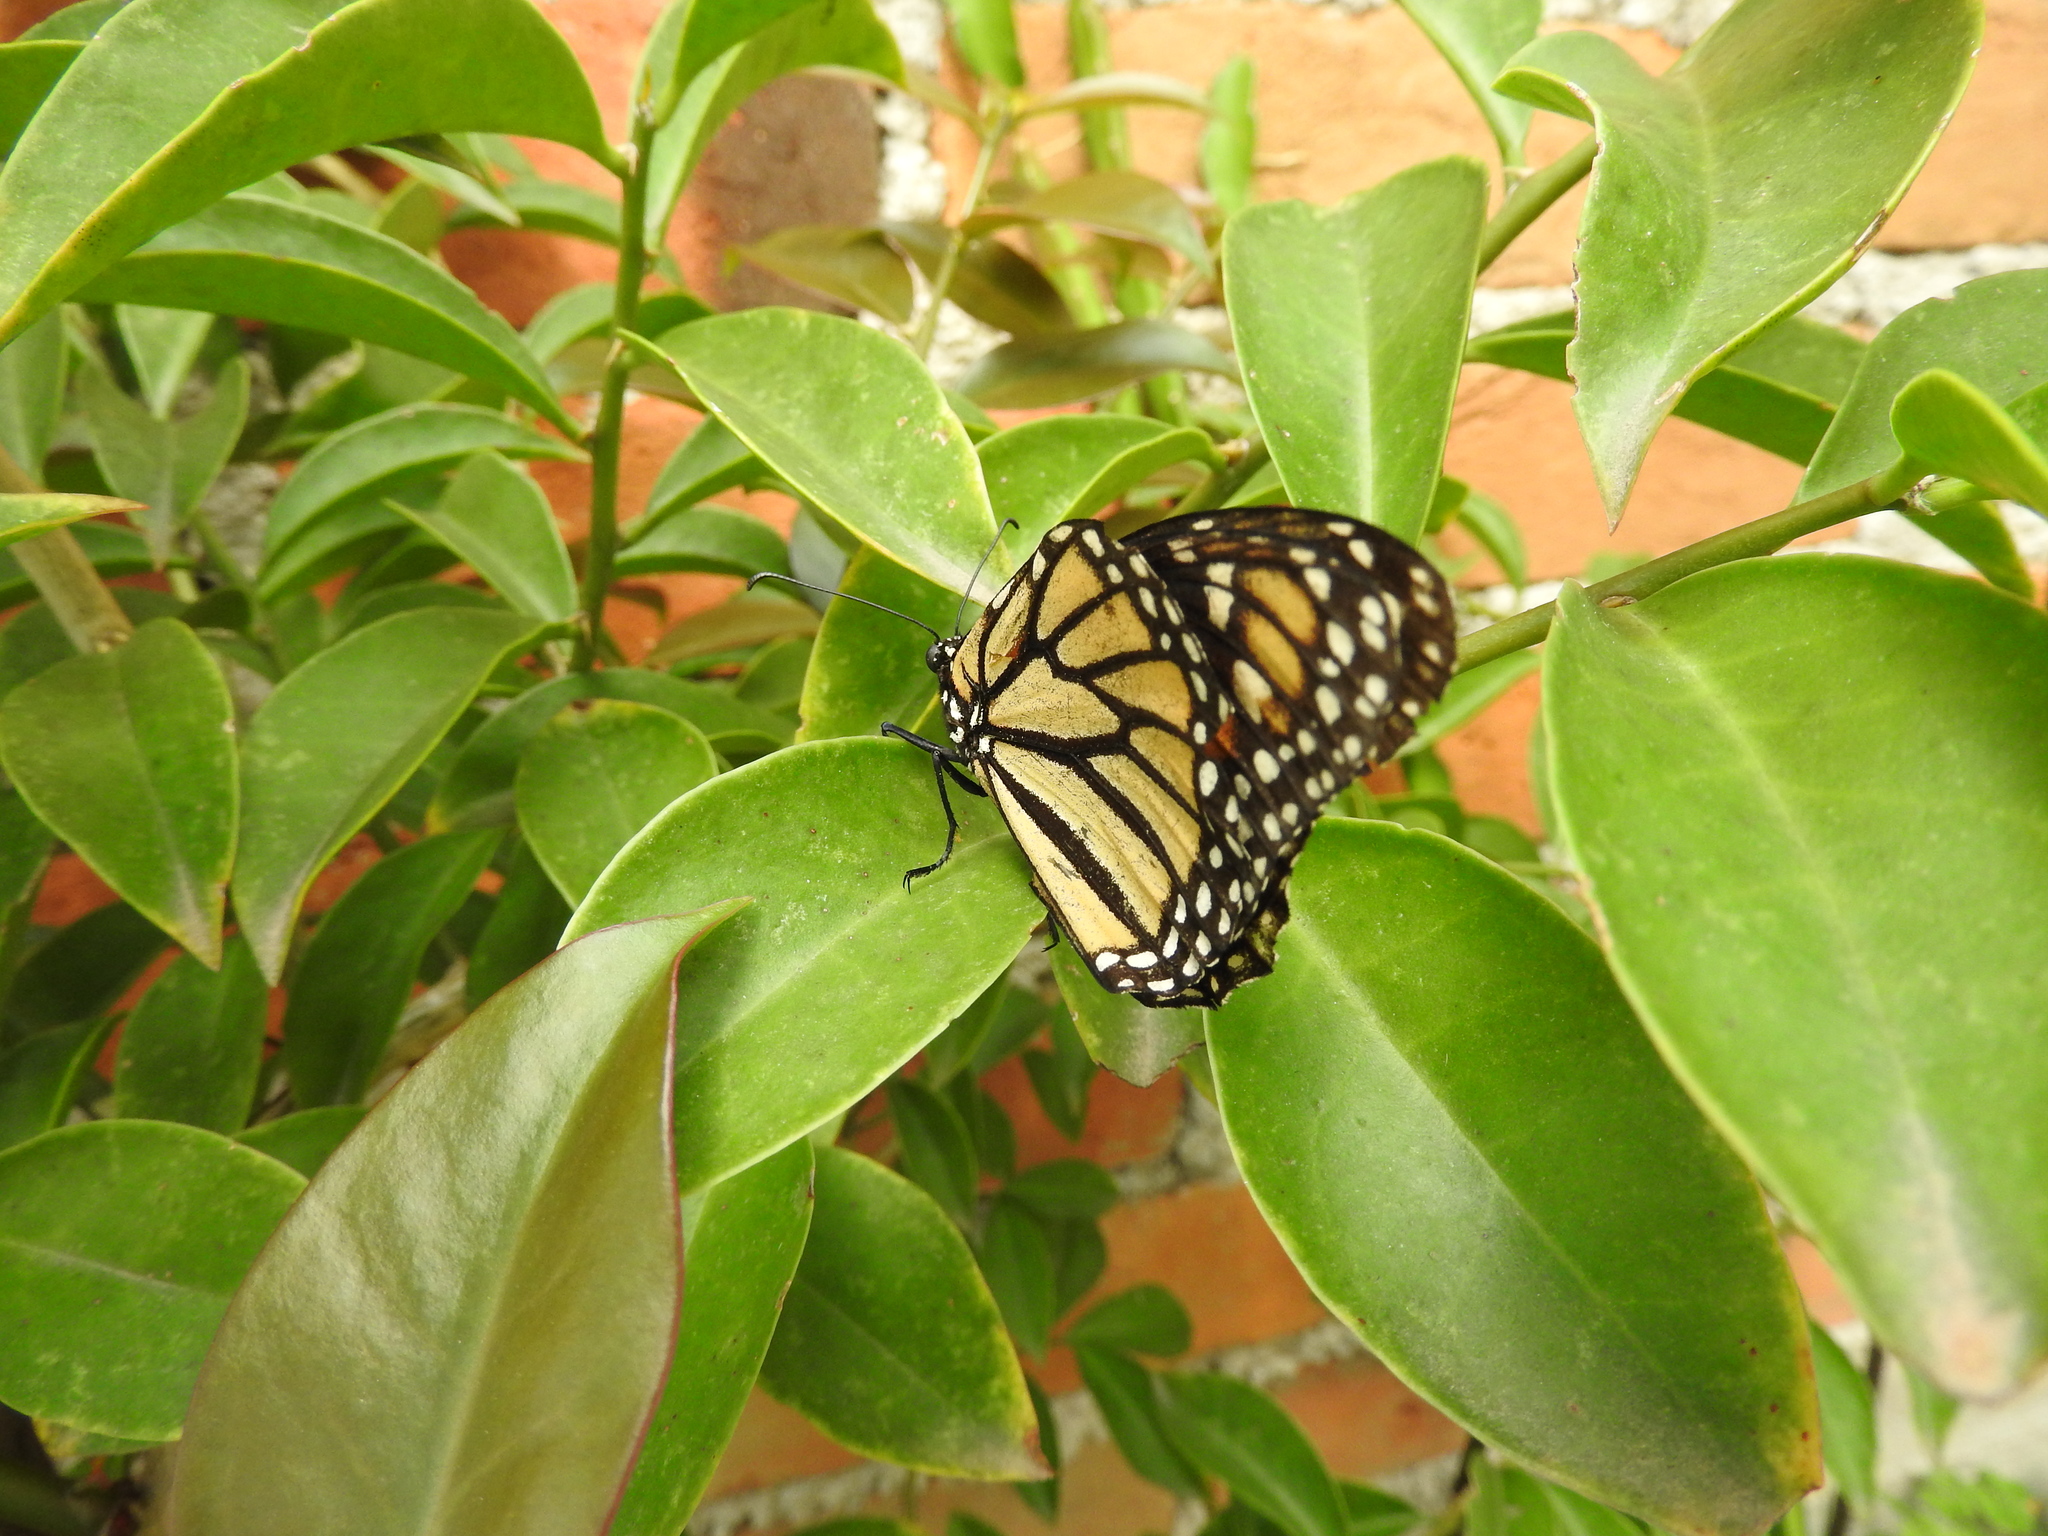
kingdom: Animalia
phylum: Arthropoda
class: Insecta
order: Lepidoptera
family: Nymphalidae
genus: Danaus
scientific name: Danaus plexippus
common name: Monarch
